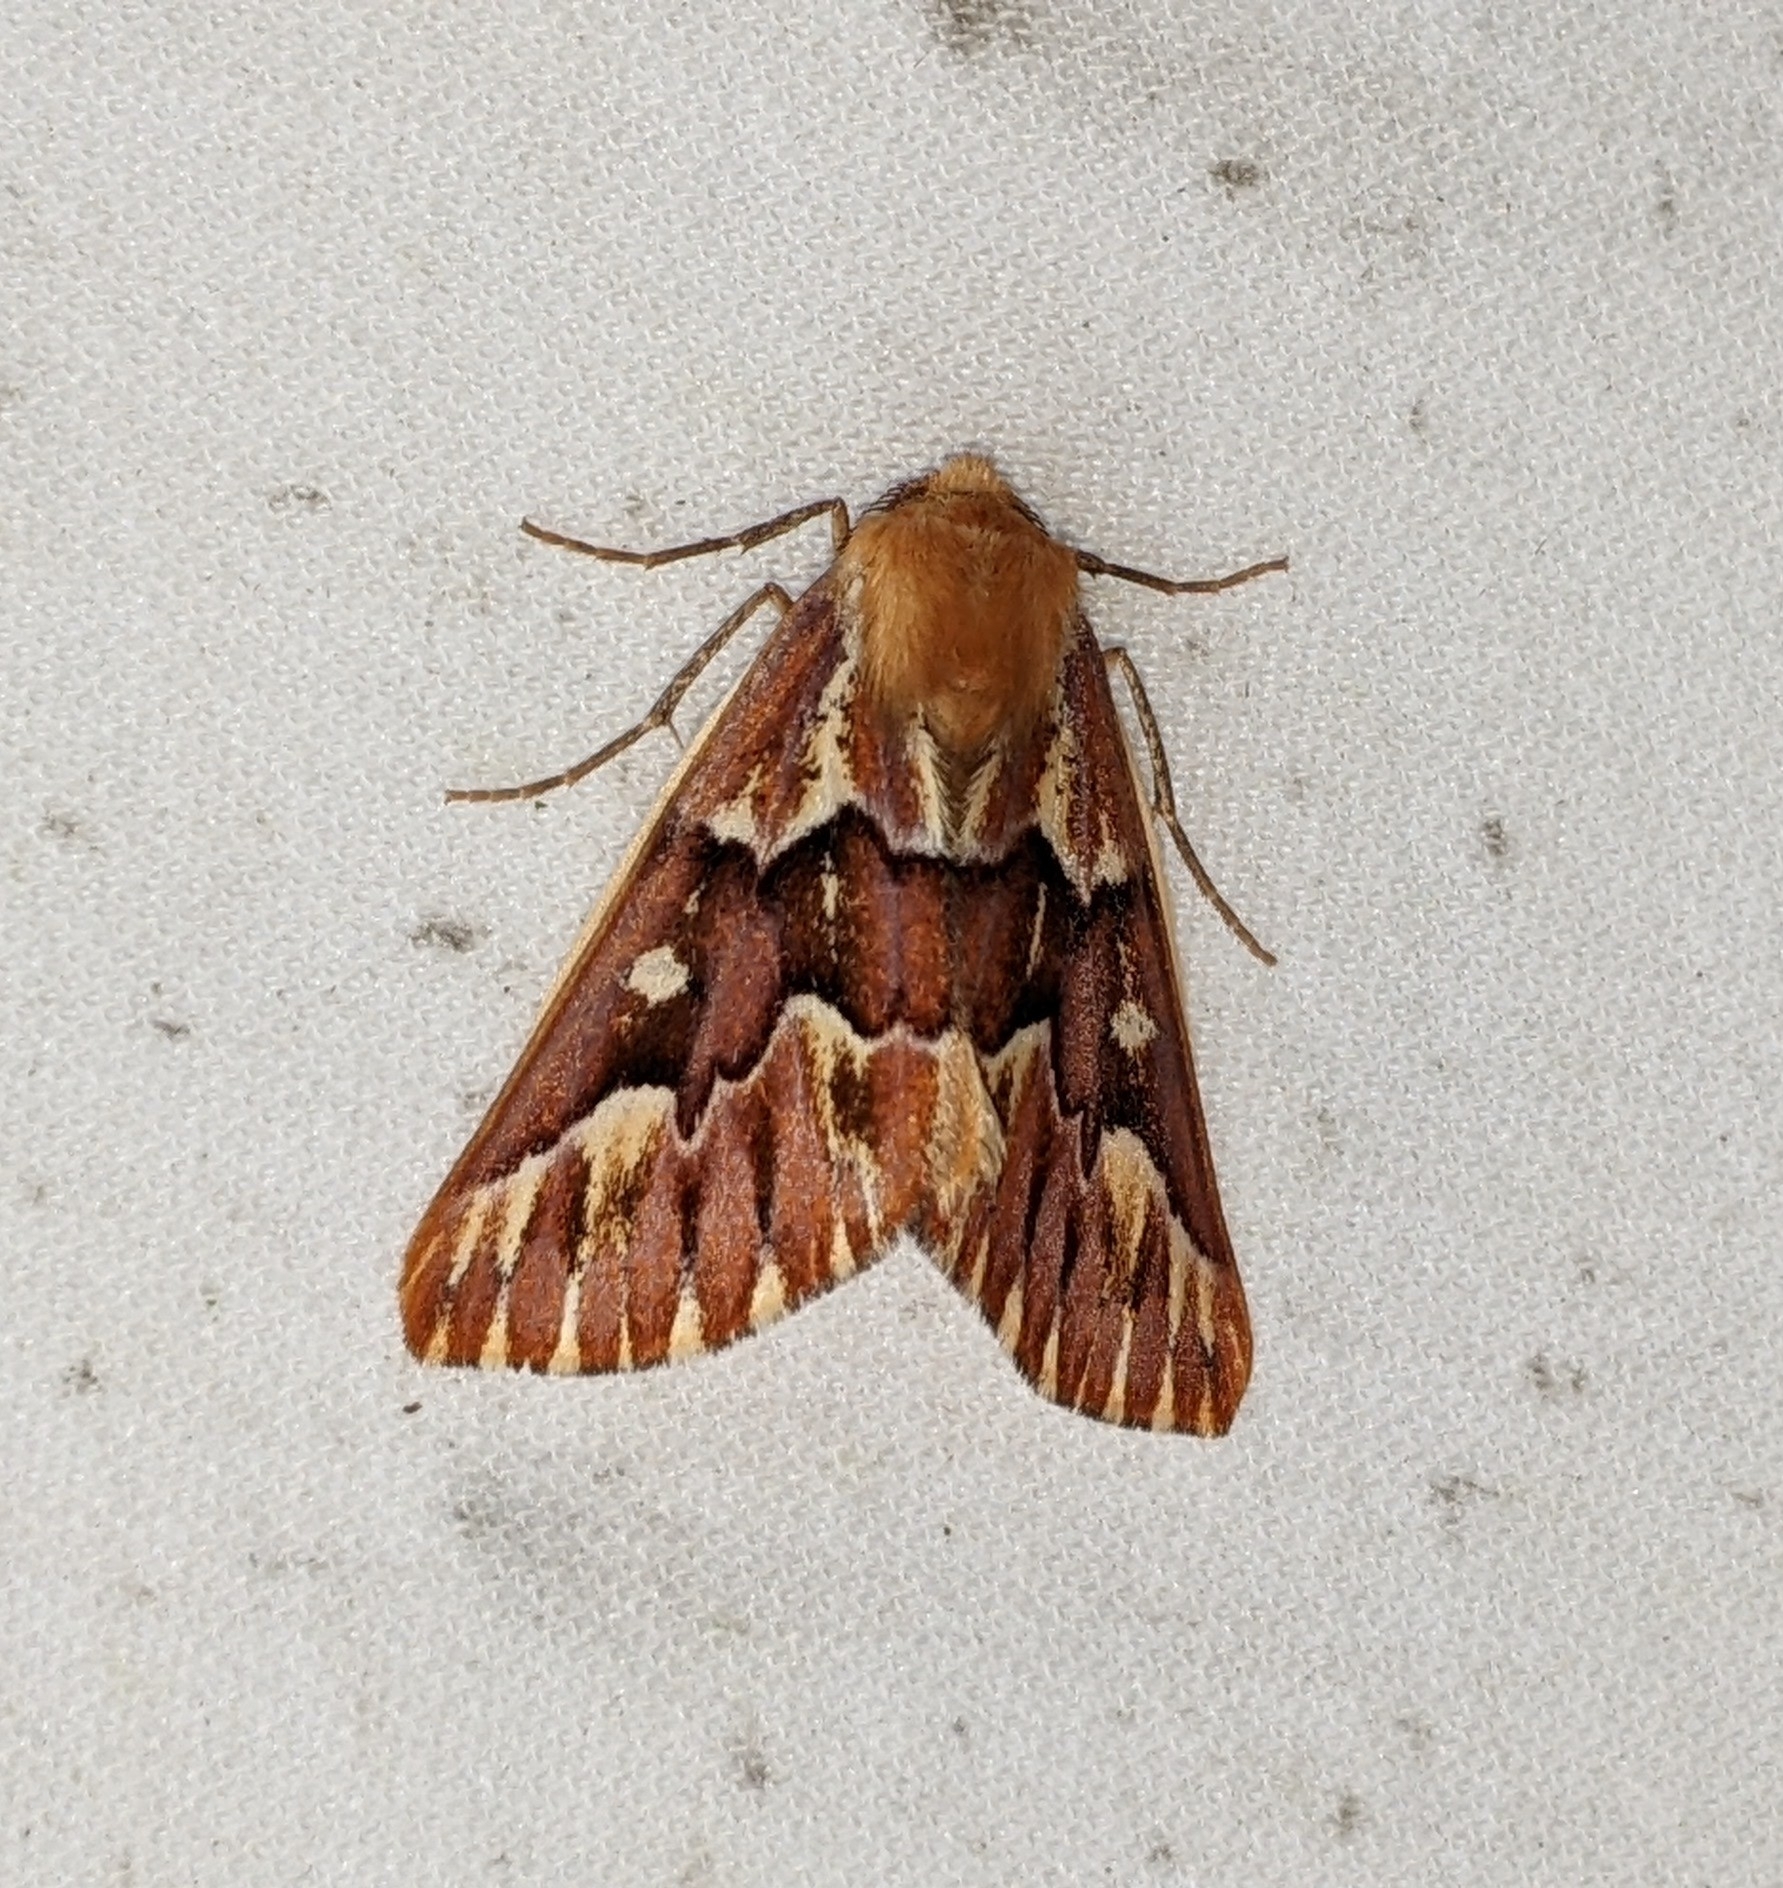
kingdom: Animalia
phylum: Arthropoda
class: Insecta
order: Lepidoptera
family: Geometridae
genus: Caripeta
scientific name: Caripeta aequaliaria
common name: Red girdle moth
